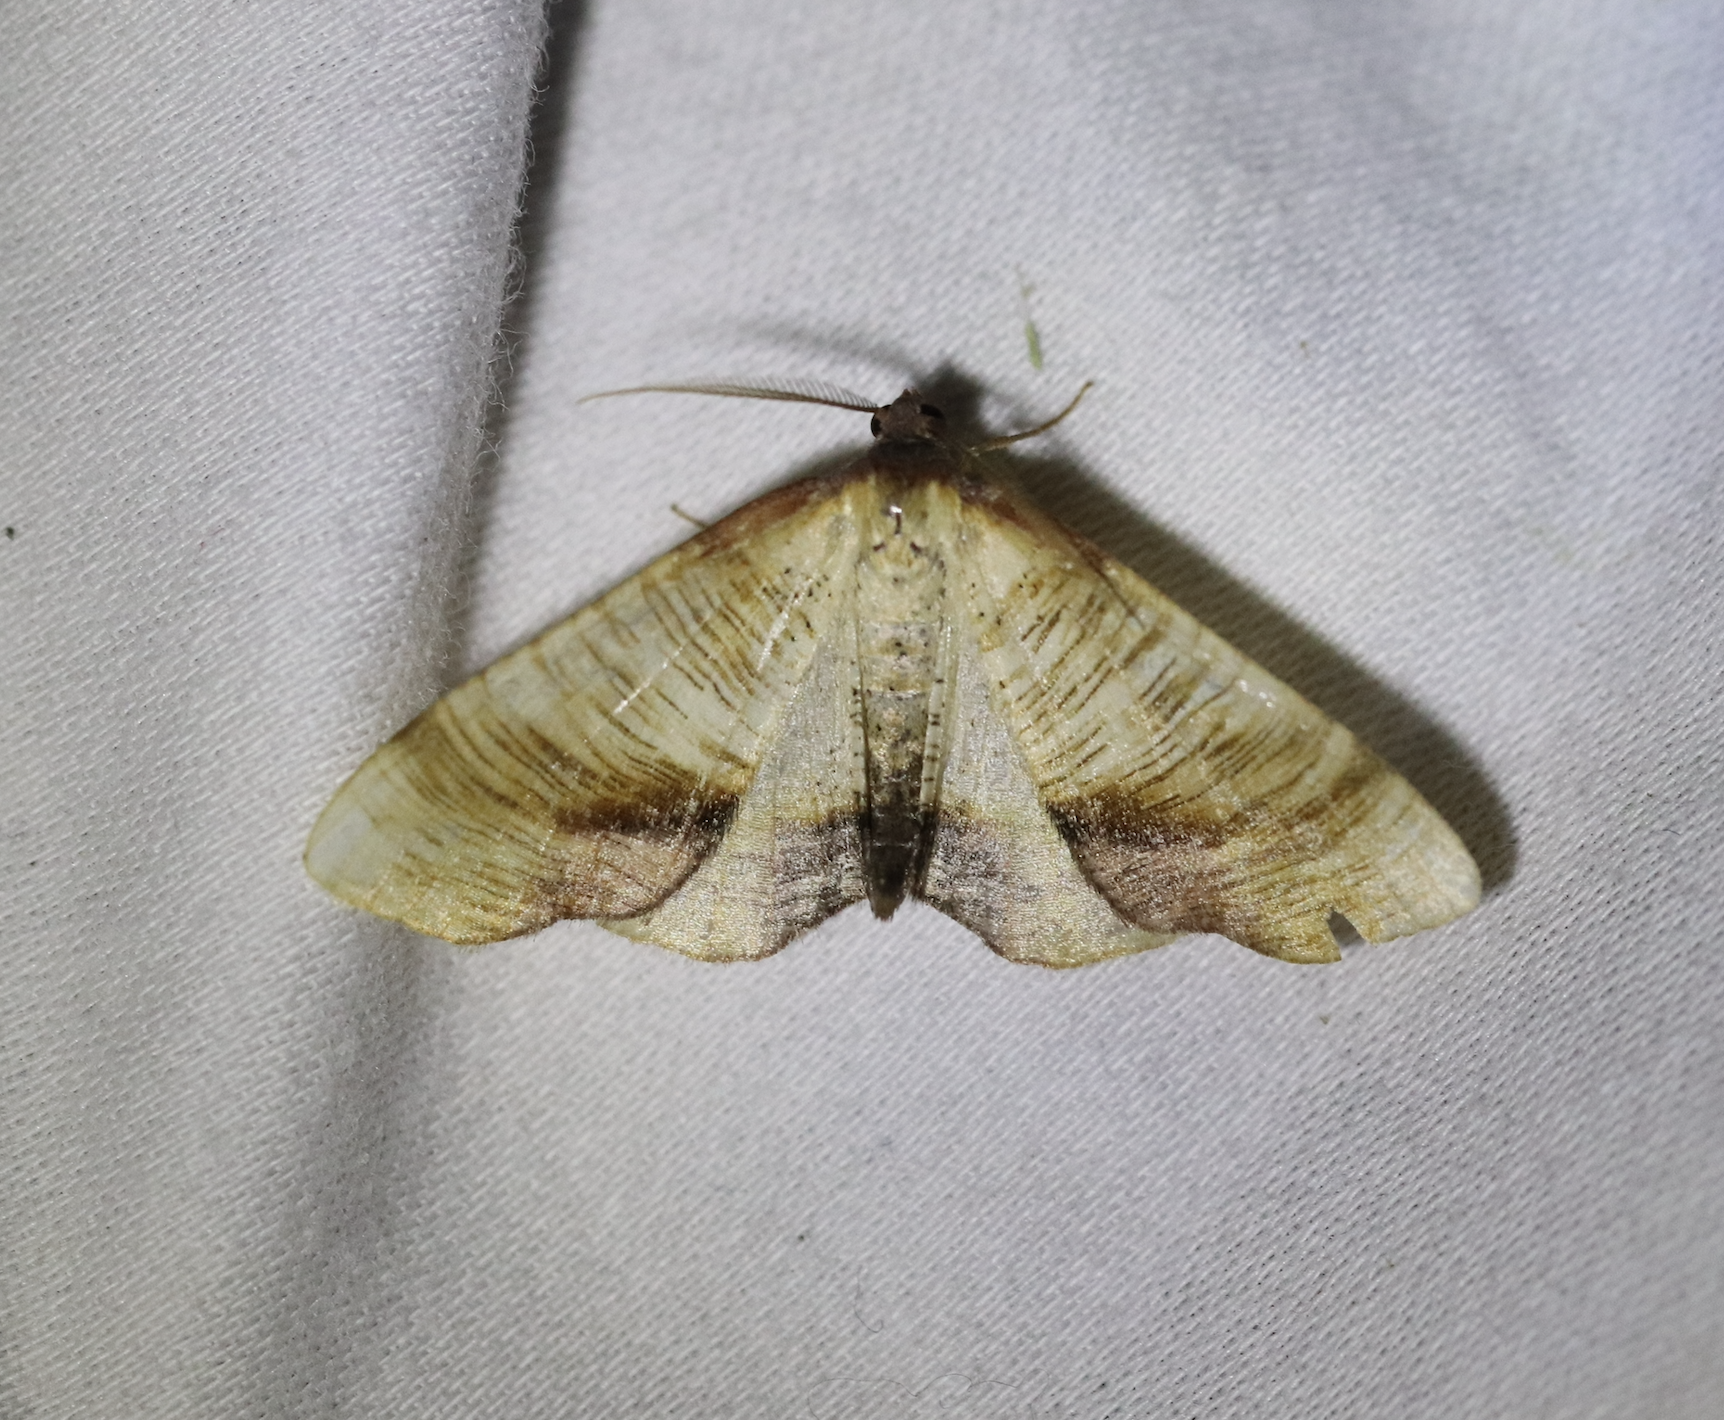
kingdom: Animalia
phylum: Arthropoda
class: Insecta
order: Lepidoptera
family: Geometridae
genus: Plagodis
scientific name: Plagodis dolabraria
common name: Scorched wing
